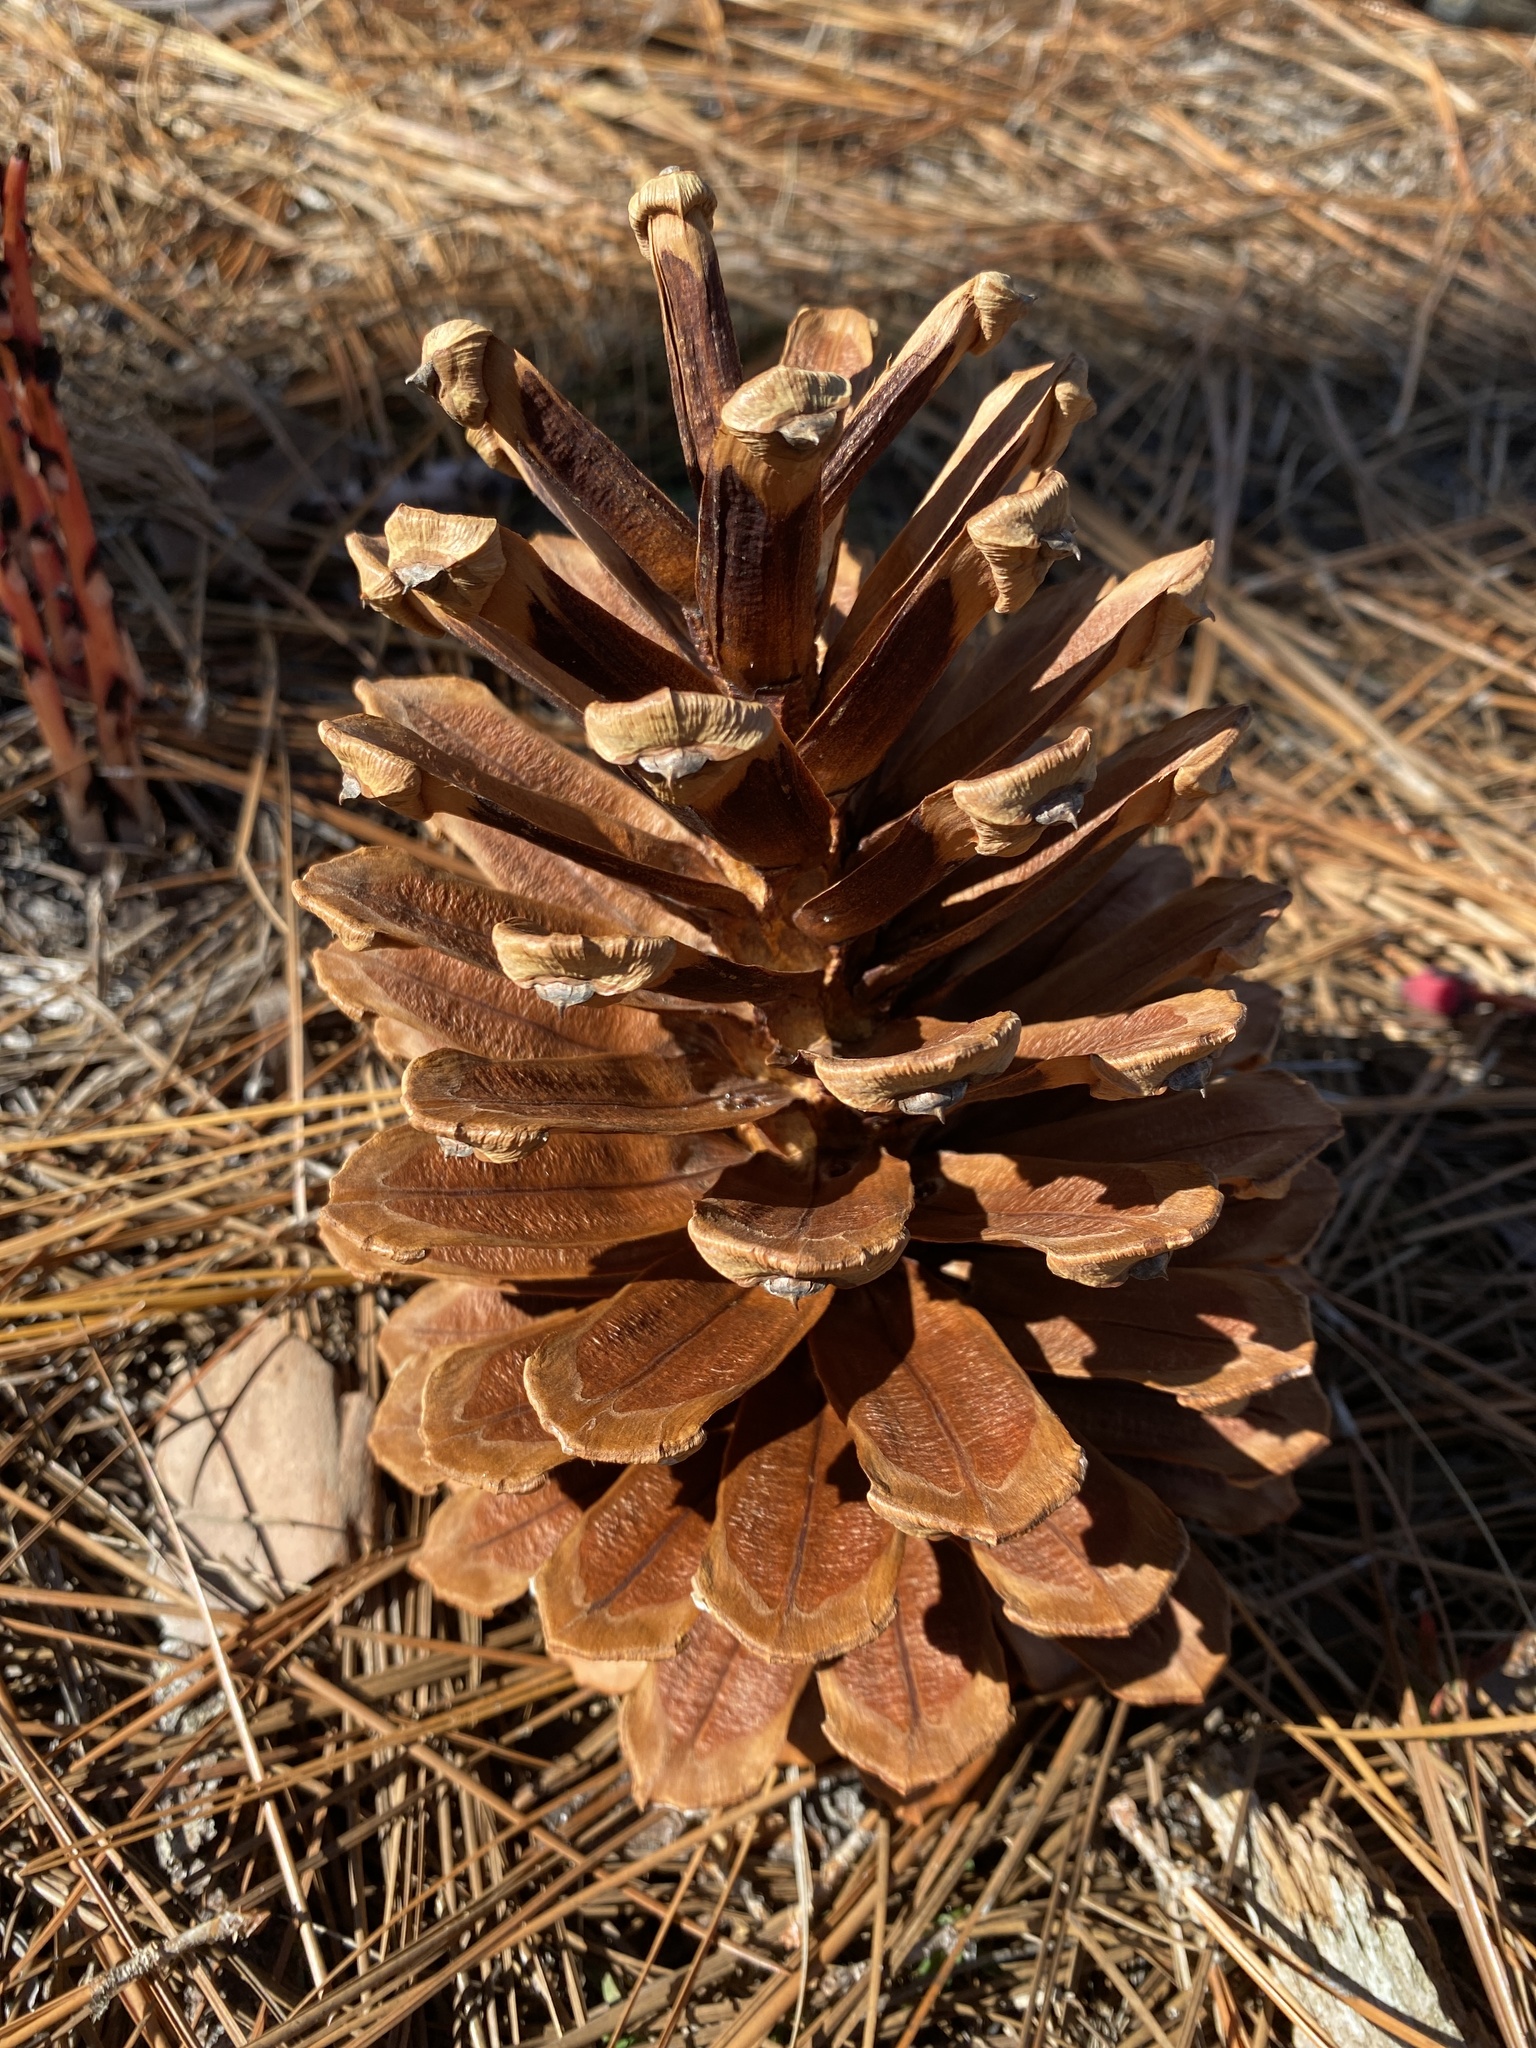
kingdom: Plantae
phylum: Tracheophyta
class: Pinopsida
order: Pinales
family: Pinaceae
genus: Pinus
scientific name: Pinus palustris
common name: Longleaf pine
